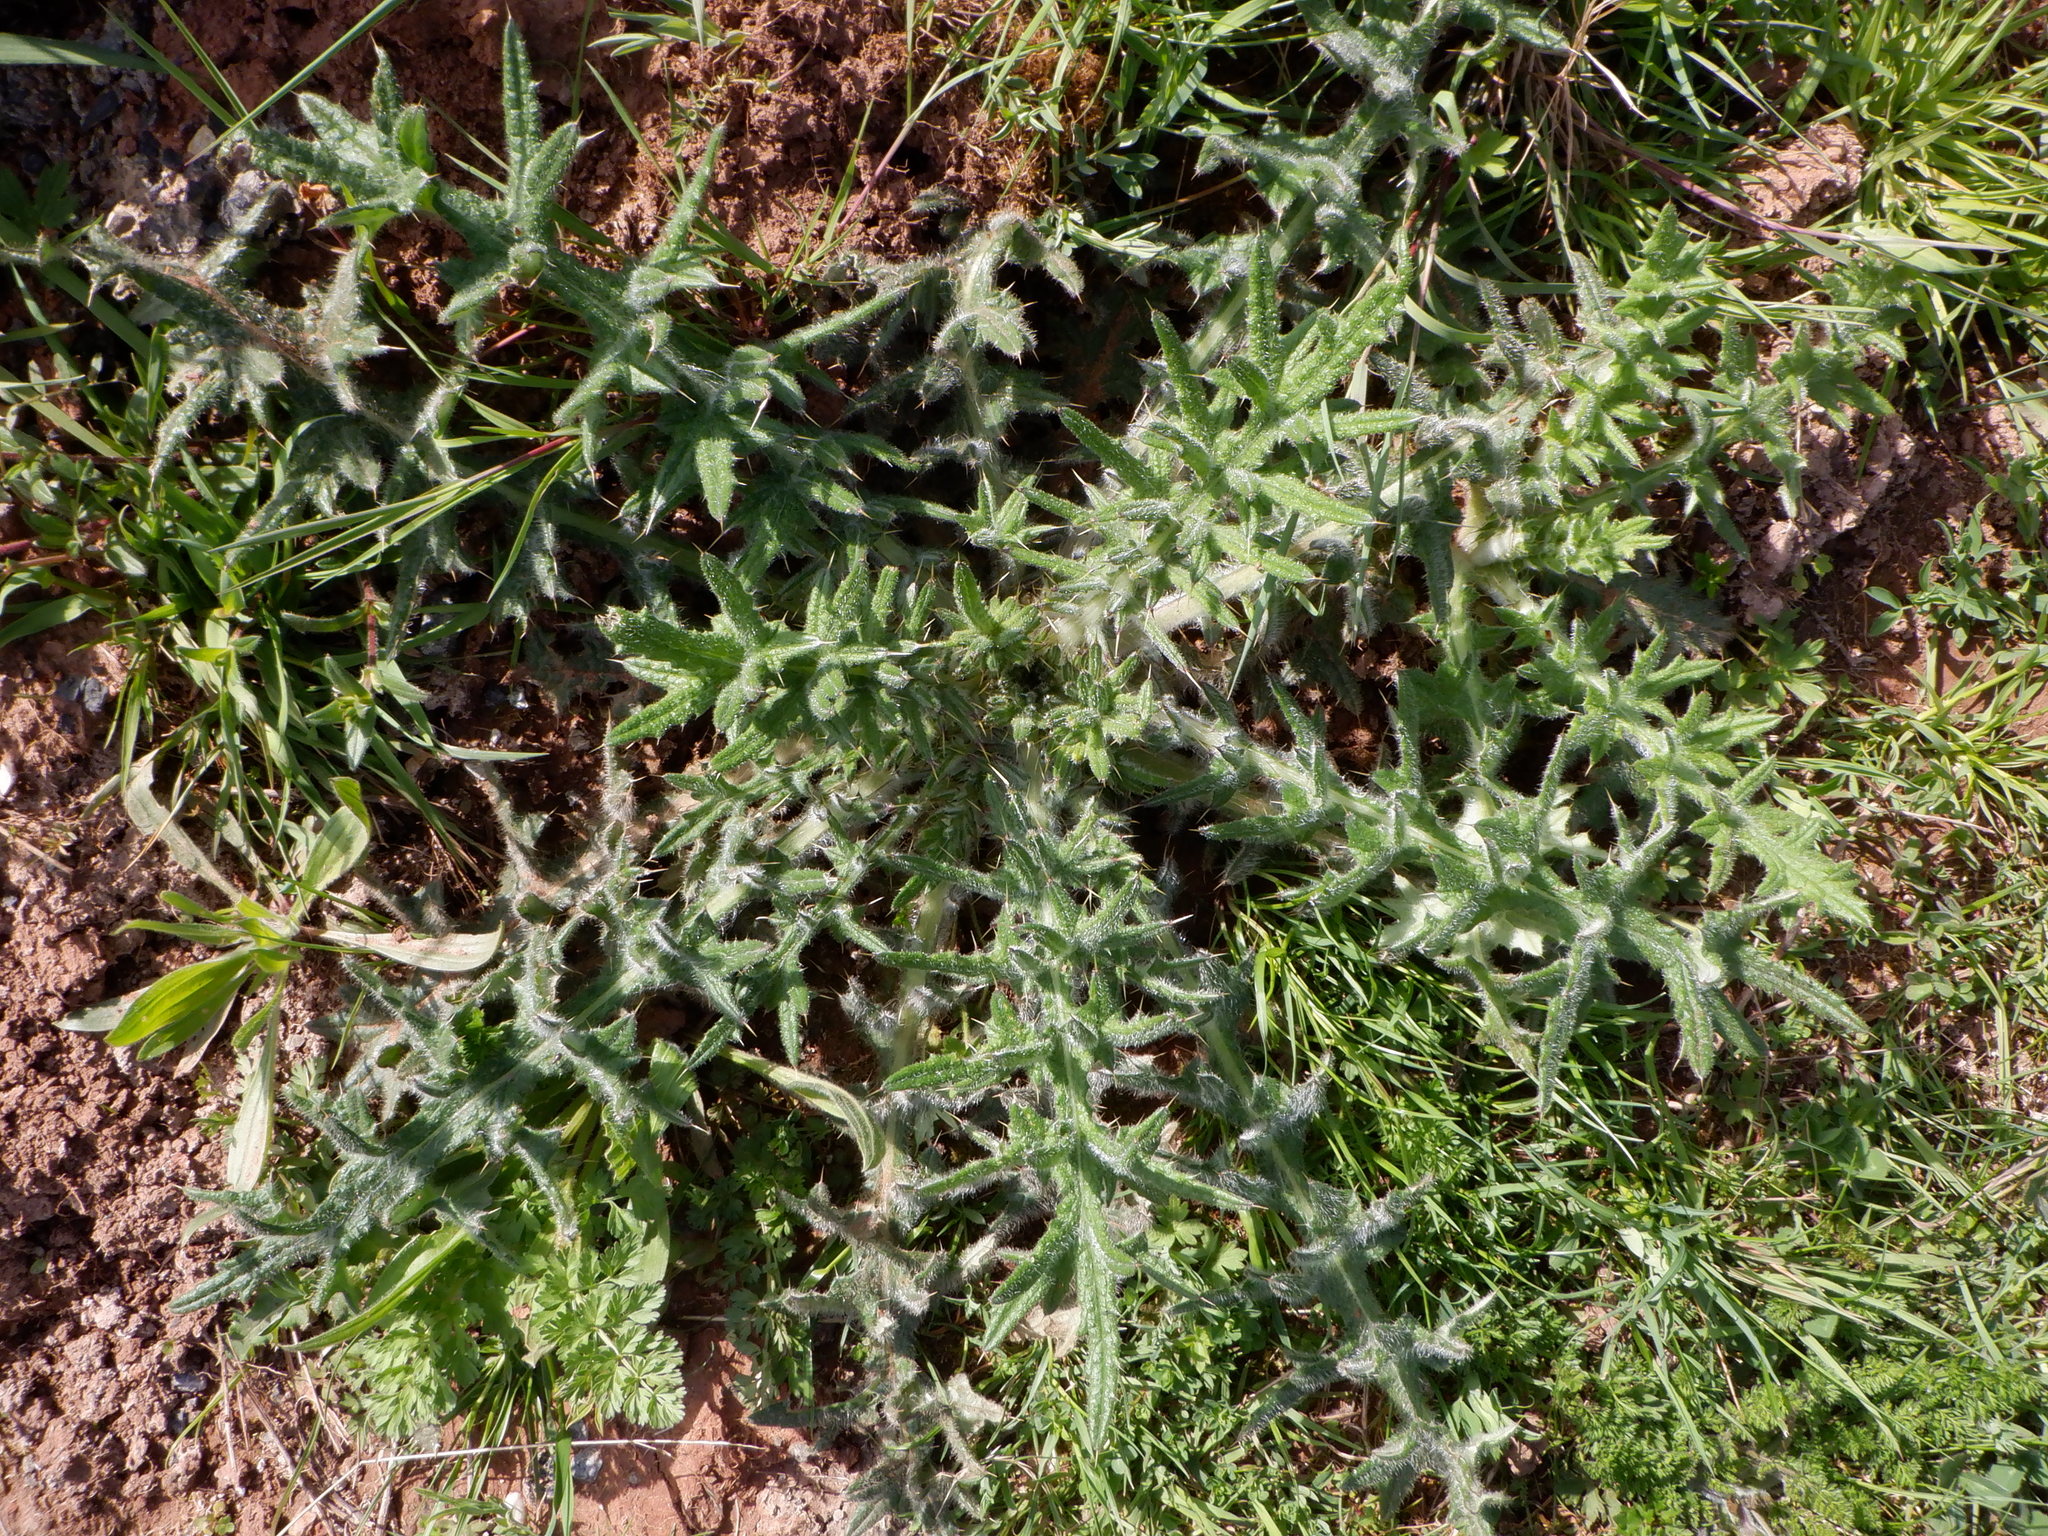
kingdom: Plantae
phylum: Tracheophyta
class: Magnoliopsida
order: Asterales
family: Asteraceae
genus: Cirsium
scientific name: Cirsium vulgare
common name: Bull thistle
